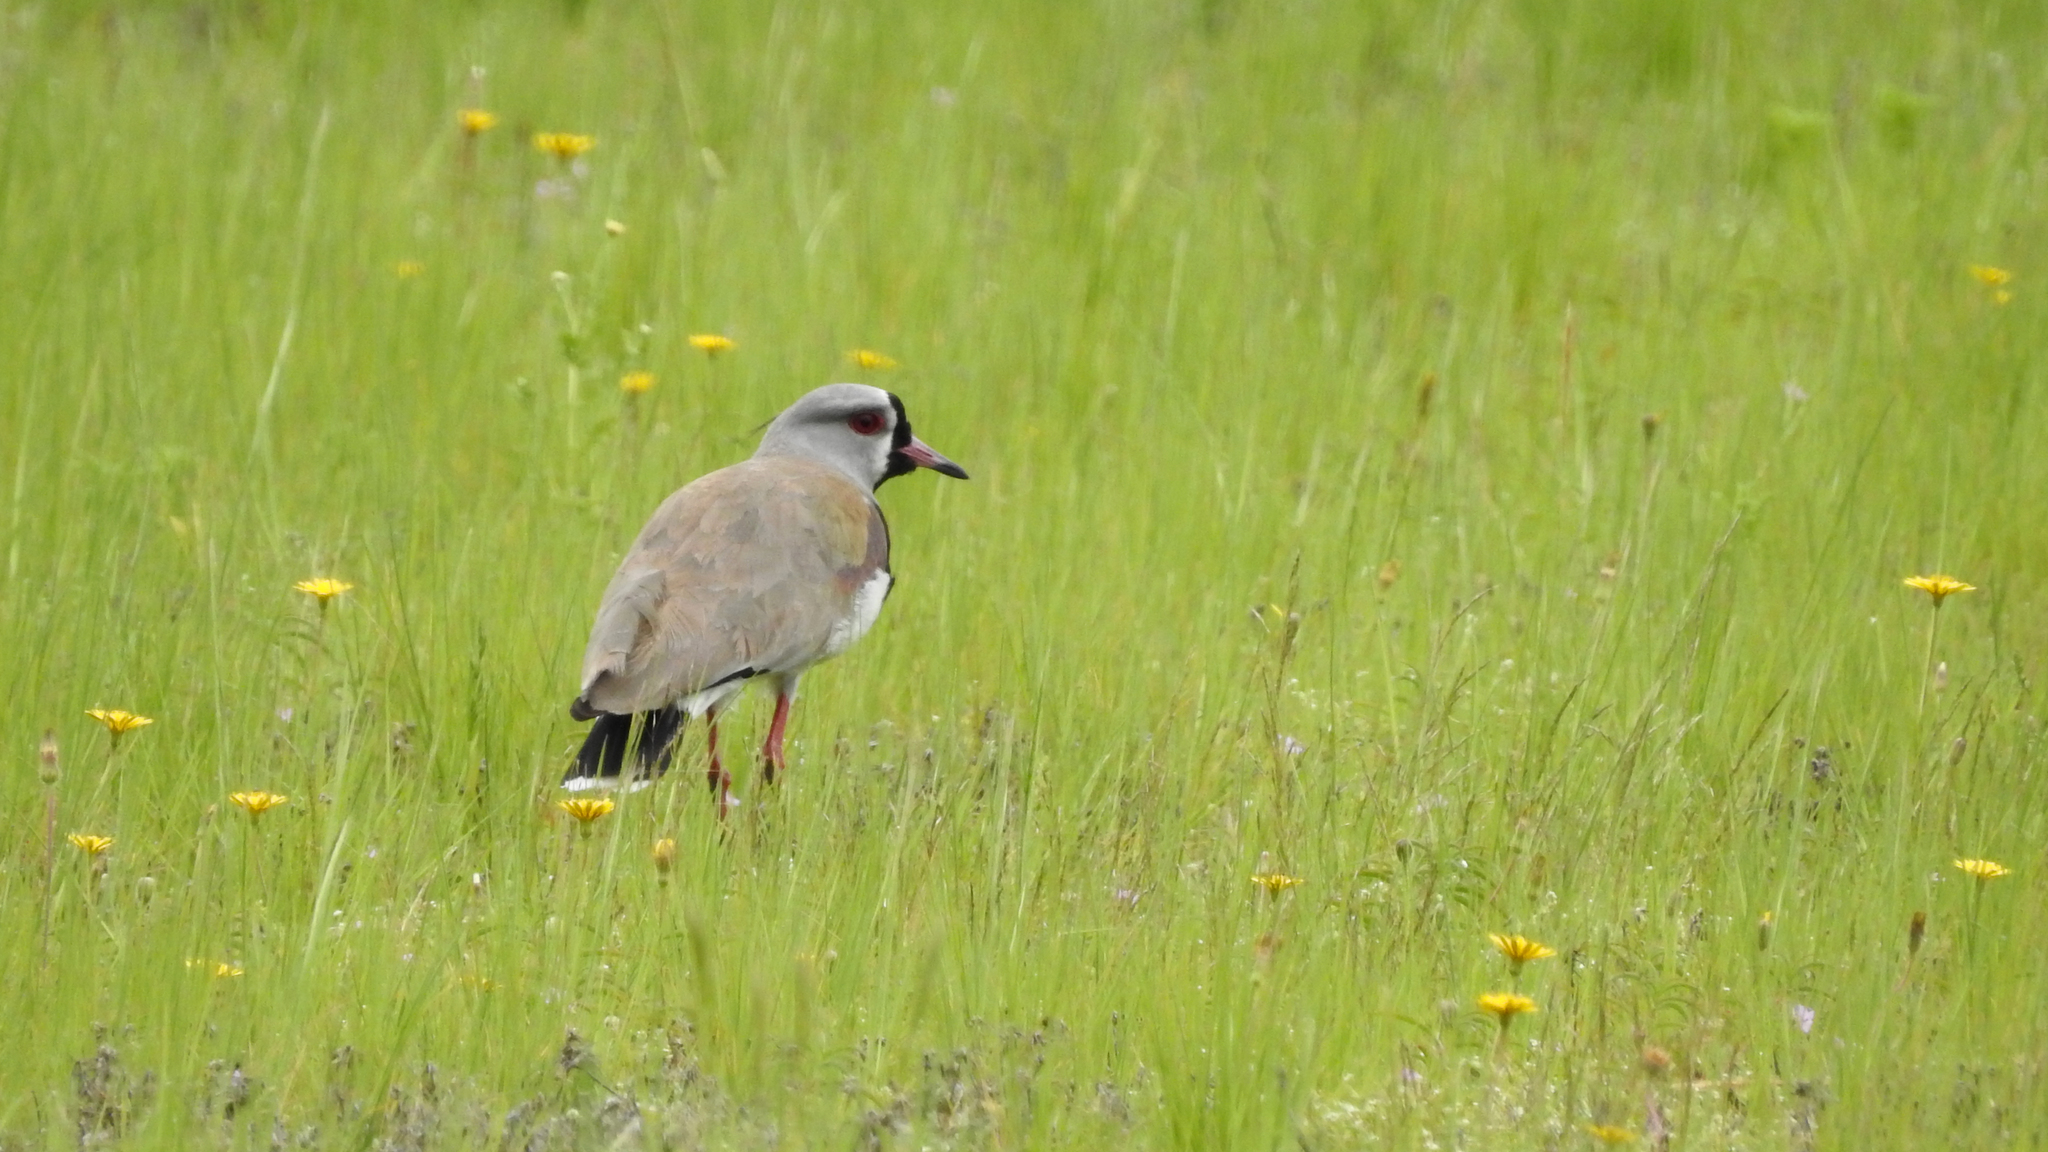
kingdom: Animalia
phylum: Chordata
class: Aves
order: Charadriiformes
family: Charadriidae
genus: Vanellus
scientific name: Vanellus chilensis
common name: Southern lapwing
